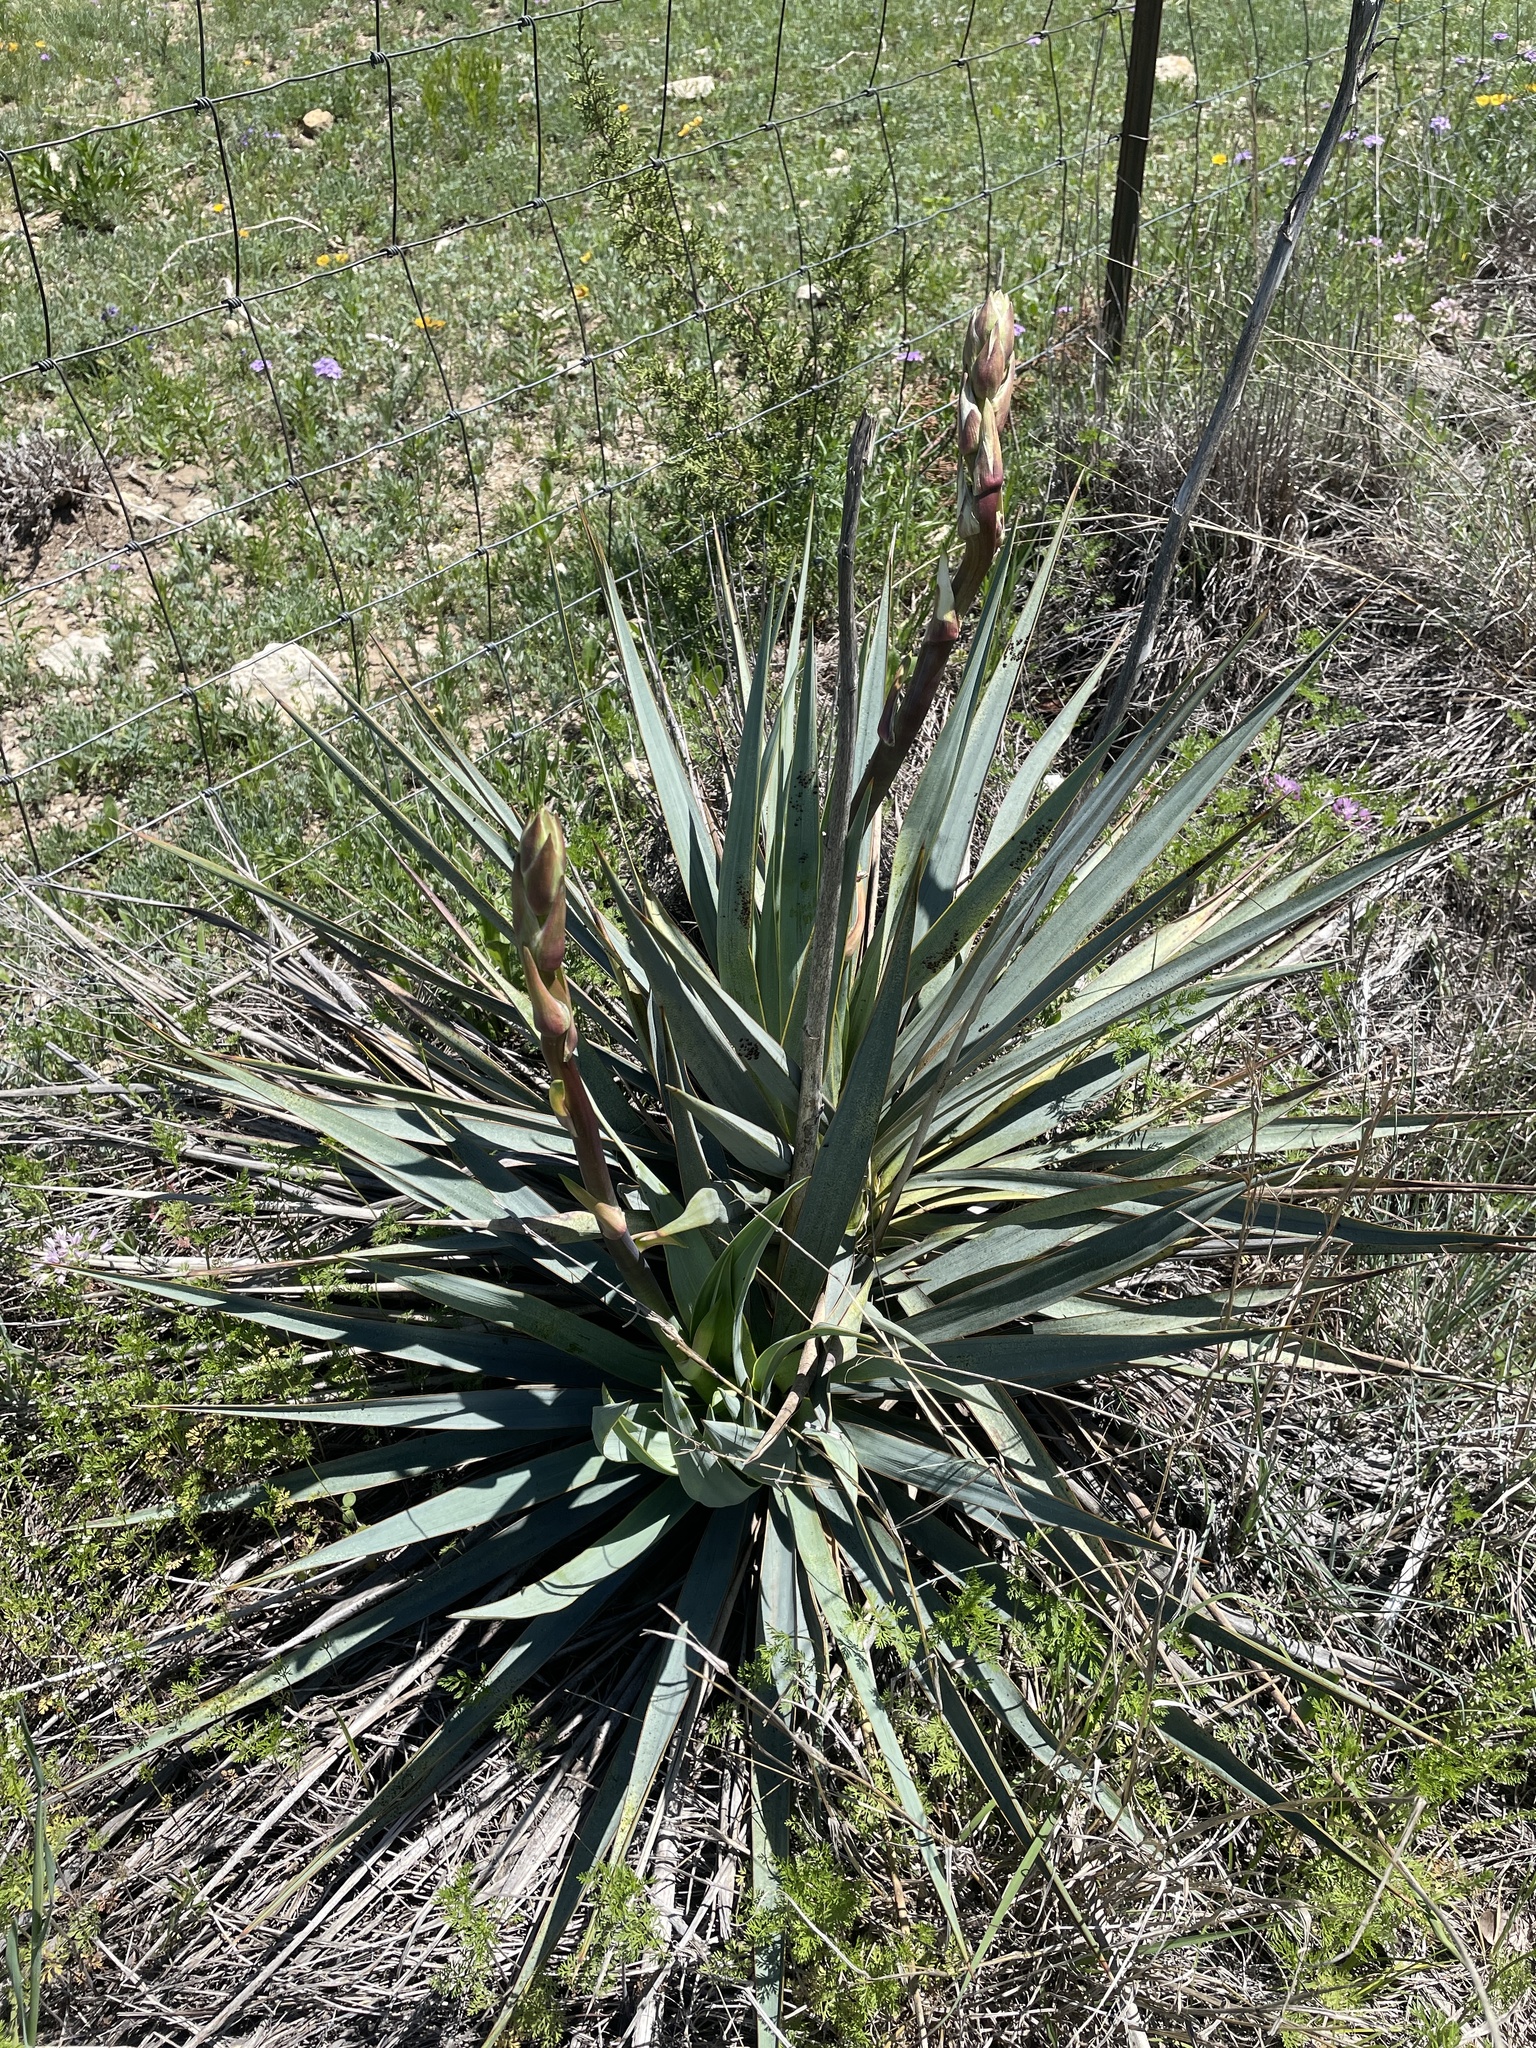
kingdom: Plantae
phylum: Tracheophyta
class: Liliopsida
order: Asparagales
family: Asparagaceae
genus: Yucca
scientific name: Yucca pallida
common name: Pale leaf yucca
